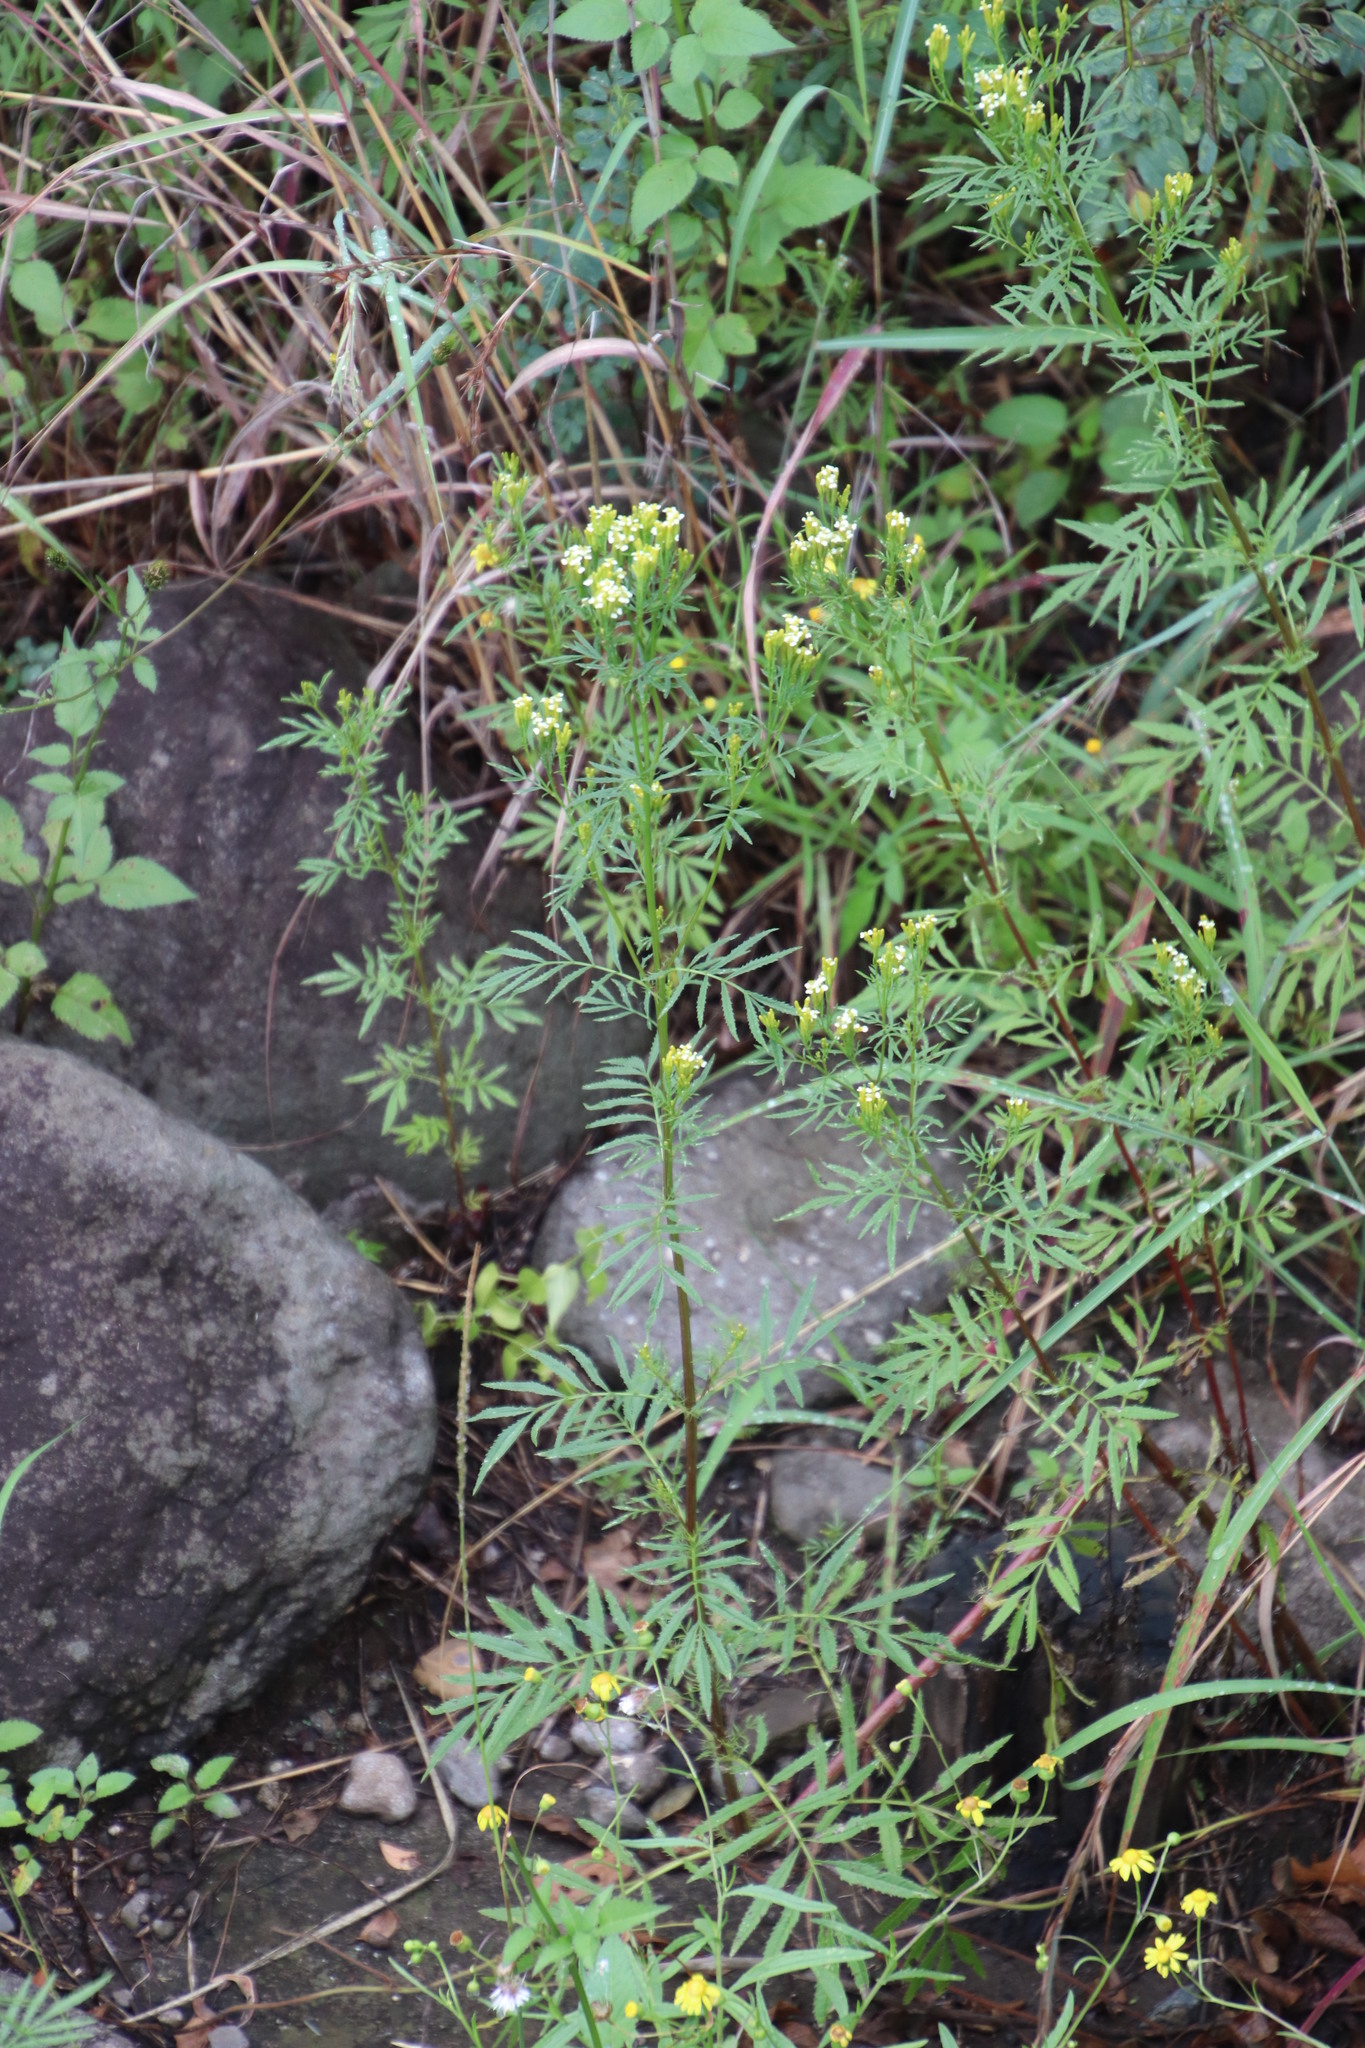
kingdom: Plantae
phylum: Tracheophyta
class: Magnoliopsida
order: Asterales
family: Asteraceae
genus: Tagetes
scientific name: Tagetes minuta
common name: Muster john henry
